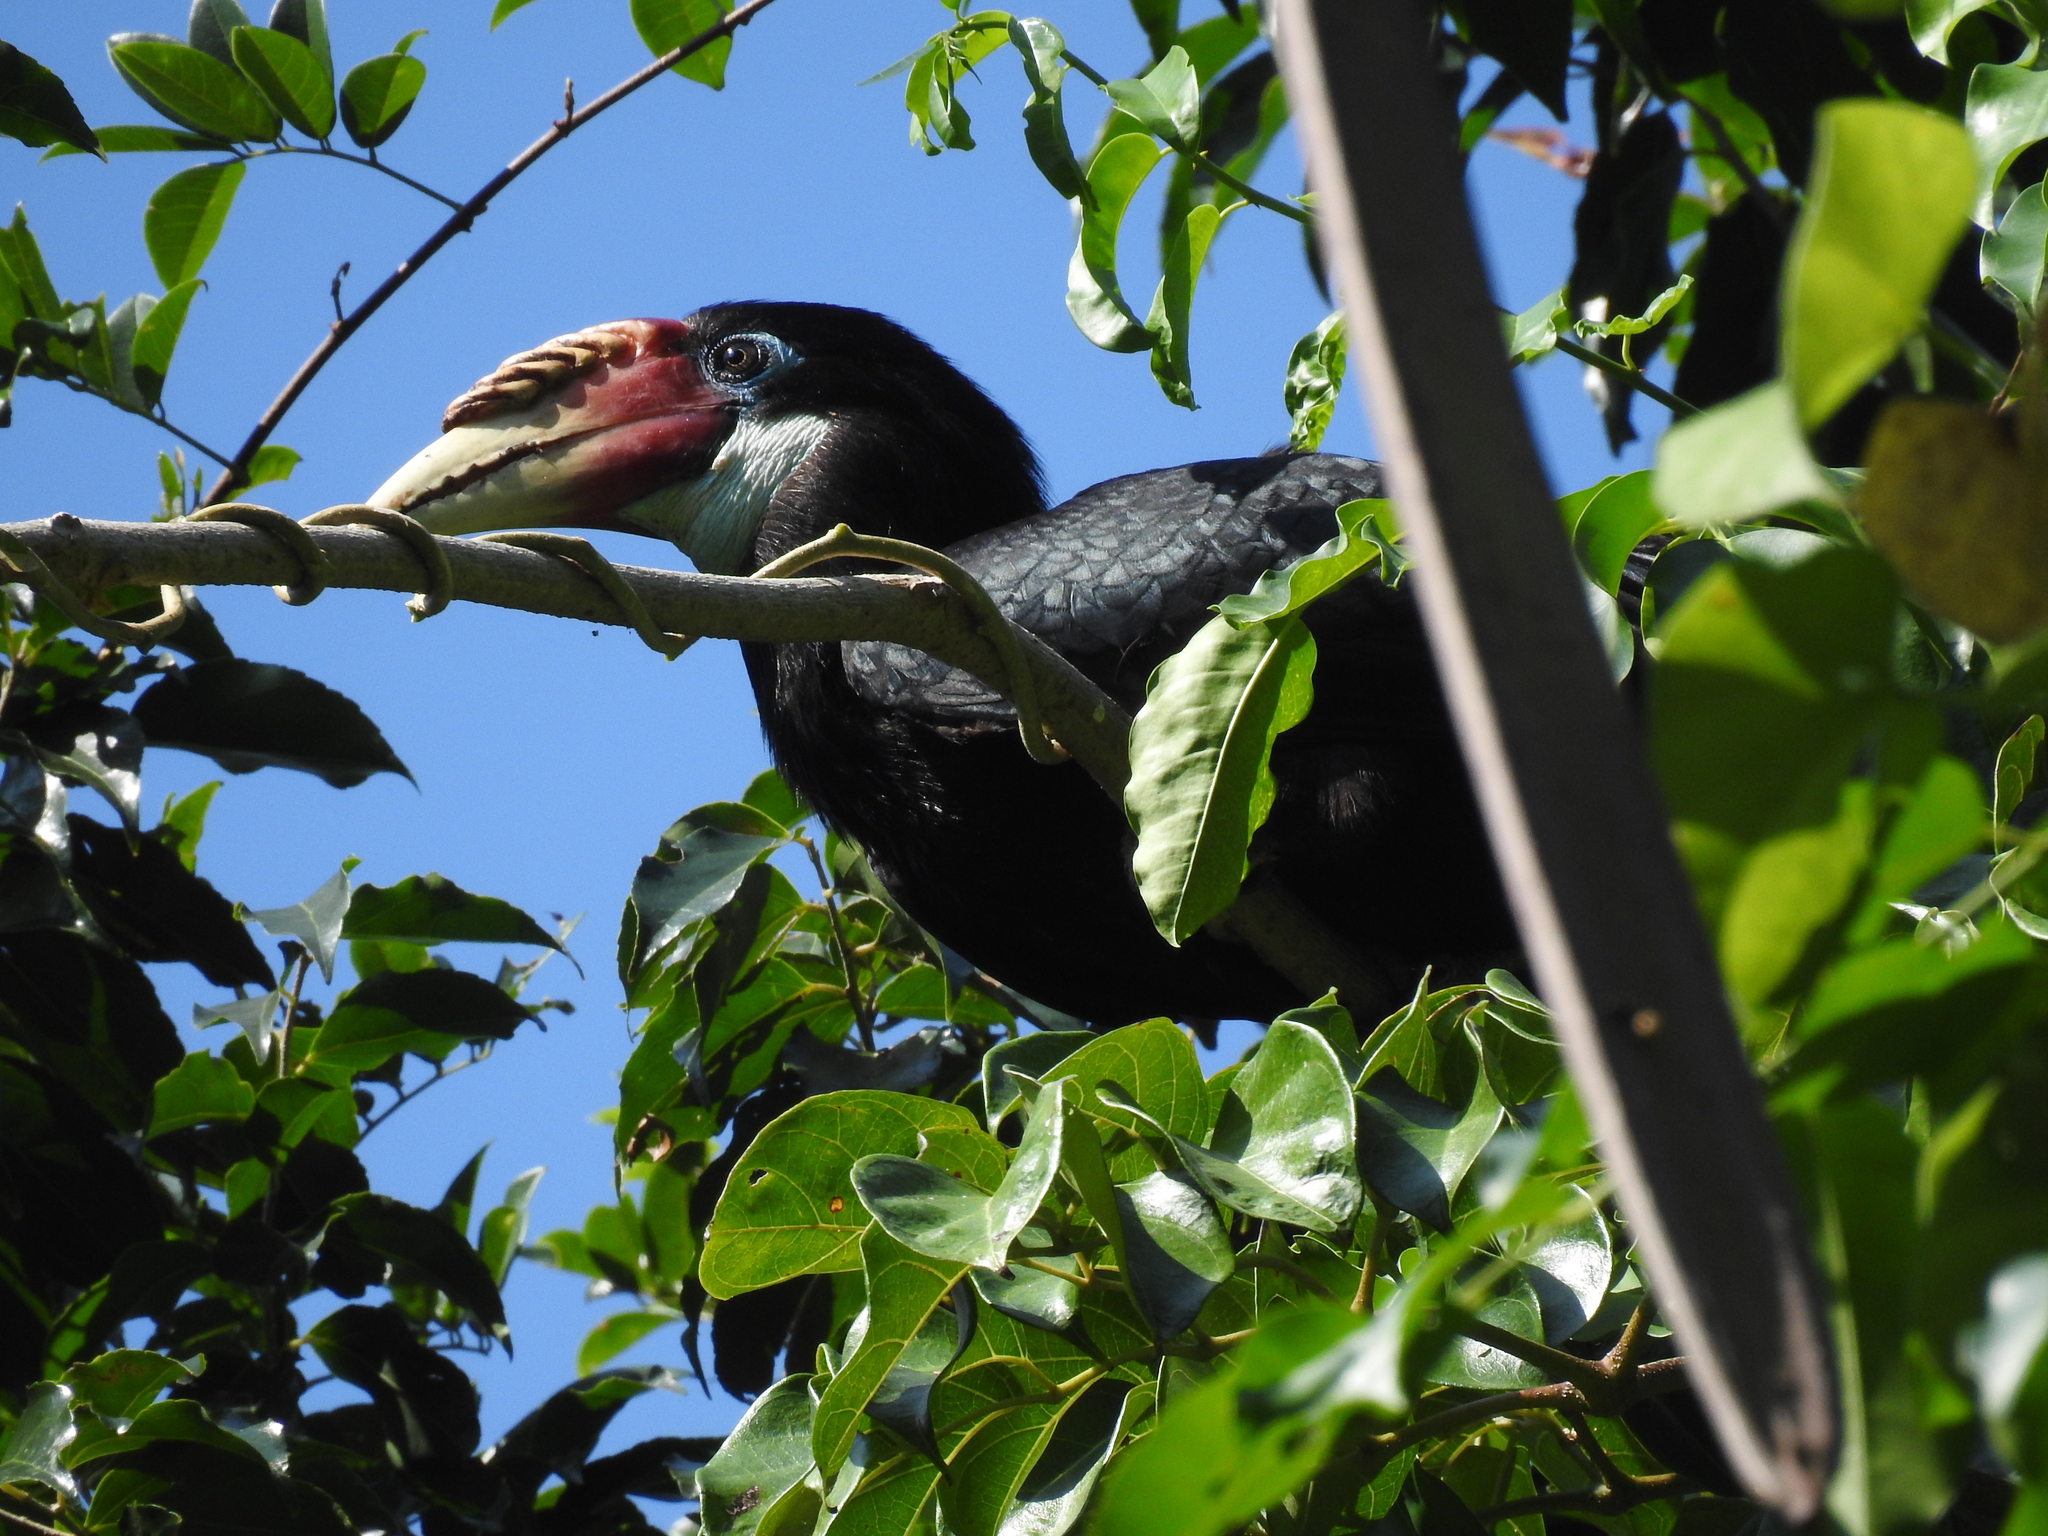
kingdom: Animalia
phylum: Chordata
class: Aves
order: Bucerotiformes
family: Bucerotidae
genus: Rhyticeros
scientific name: Rhyticeros narcondami
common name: Narcondam hornbill
